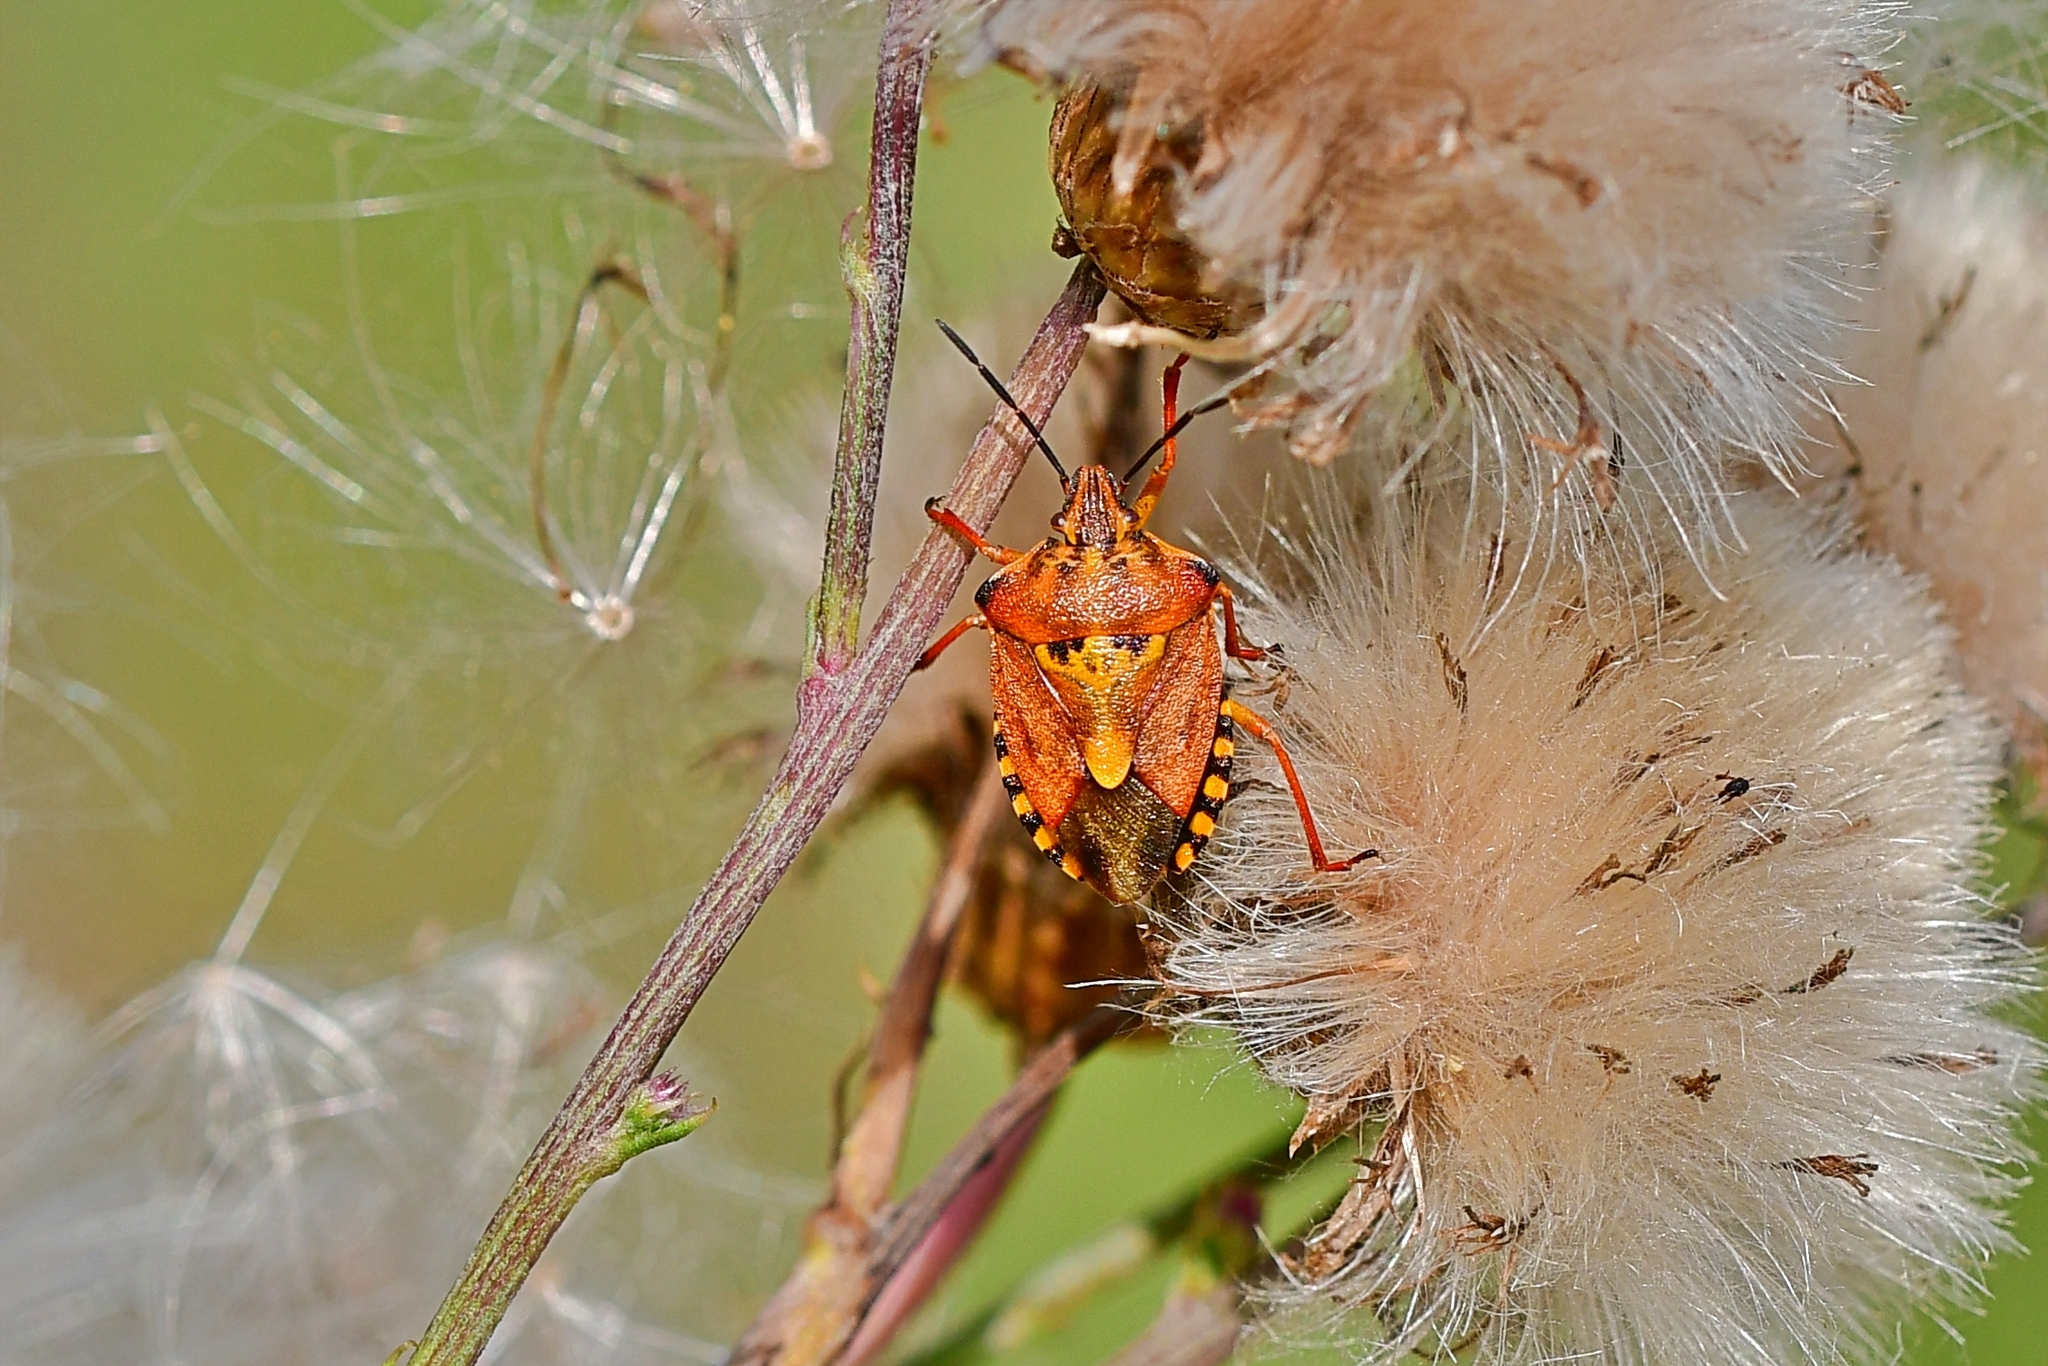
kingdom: Animalia
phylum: Arthropoda
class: Insecta
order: Hemiptera
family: Pentatomidae
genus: Carpocoris
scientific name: Carpocoris purpureipennis
